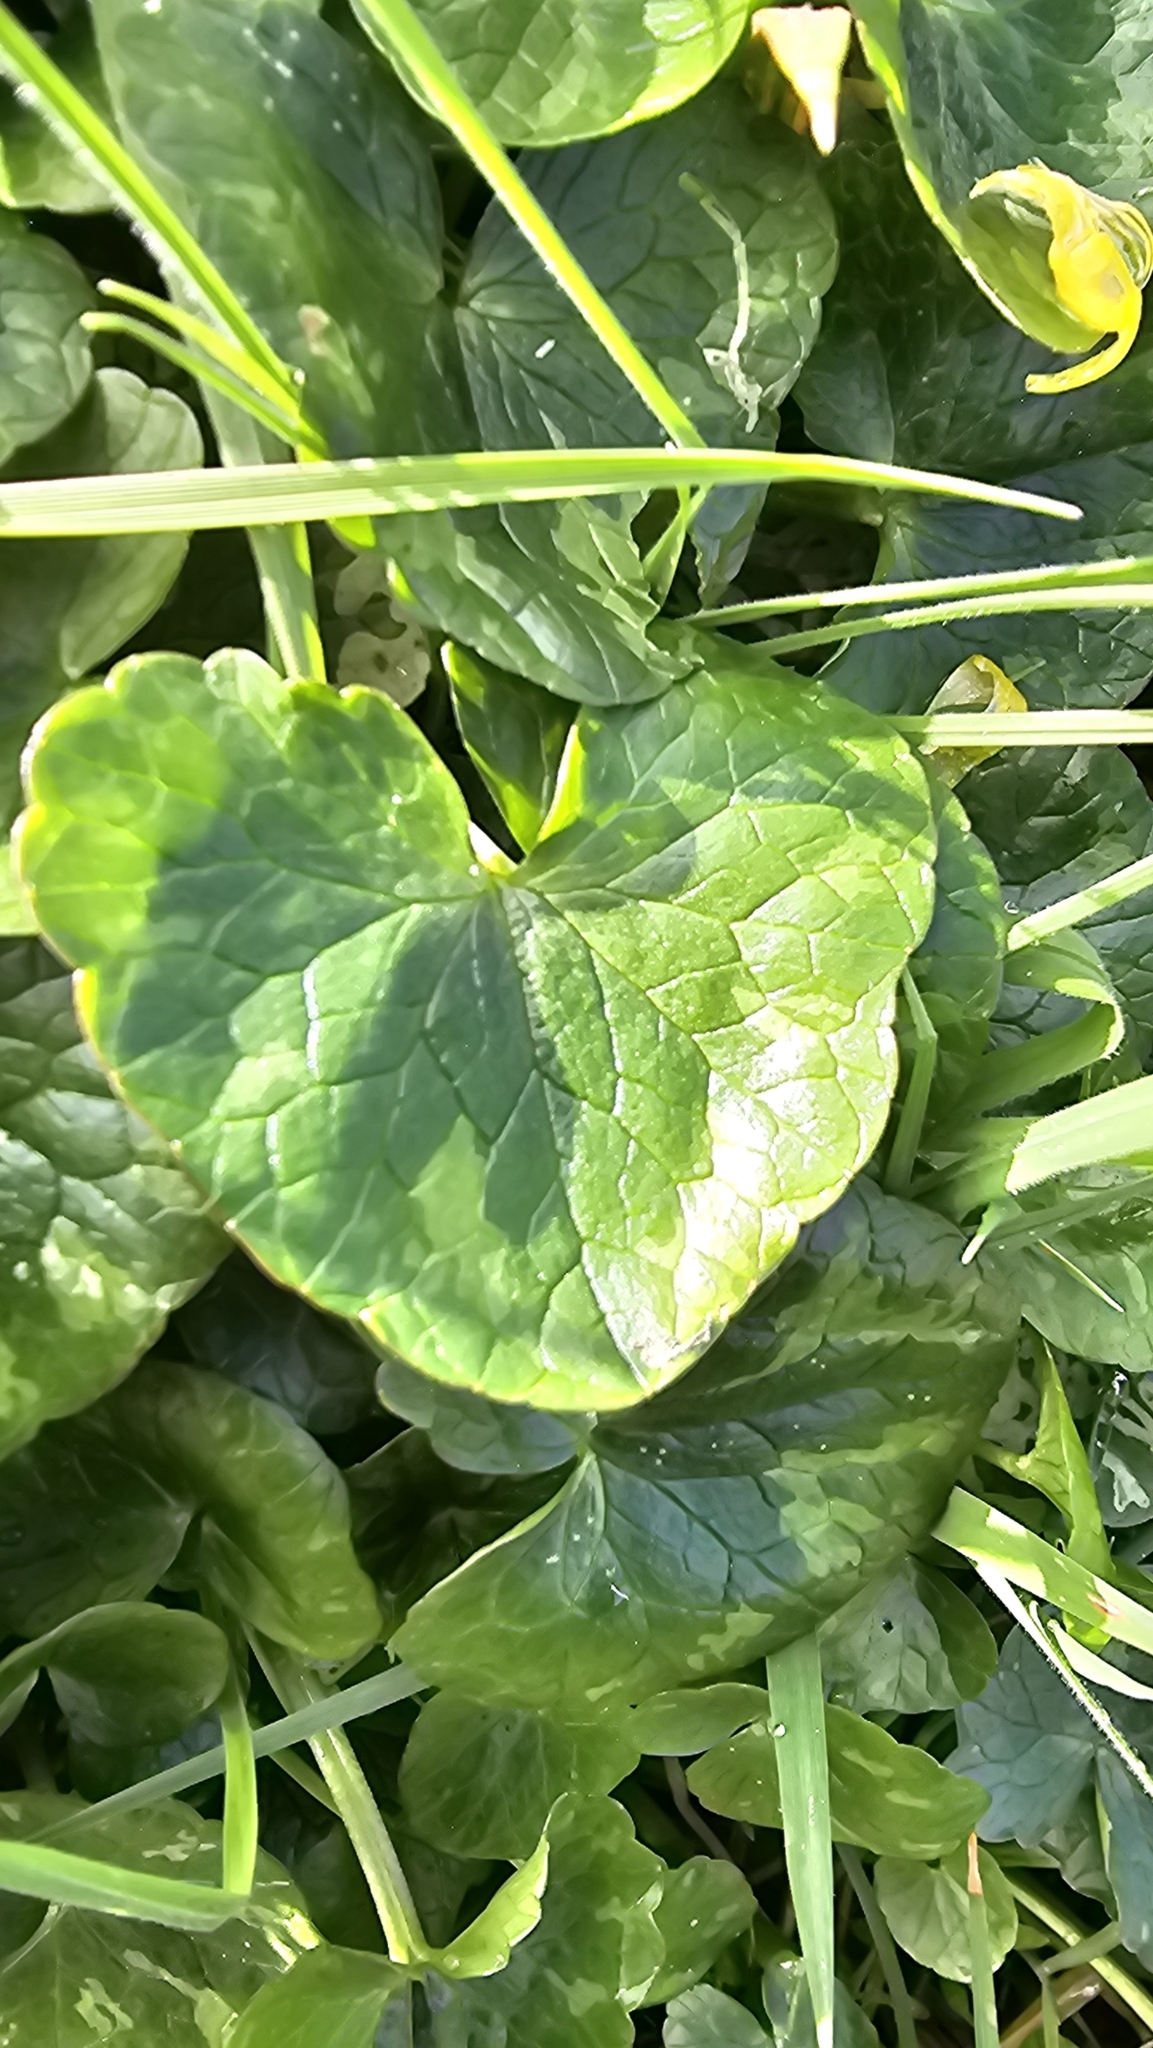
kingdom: Plantae
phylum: Tracheophyta
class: Magnoliopsida
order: Ranunculales
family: Ranunculaceae
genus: Ficaria
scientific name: Ficaria verna
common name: Lesser celandine
